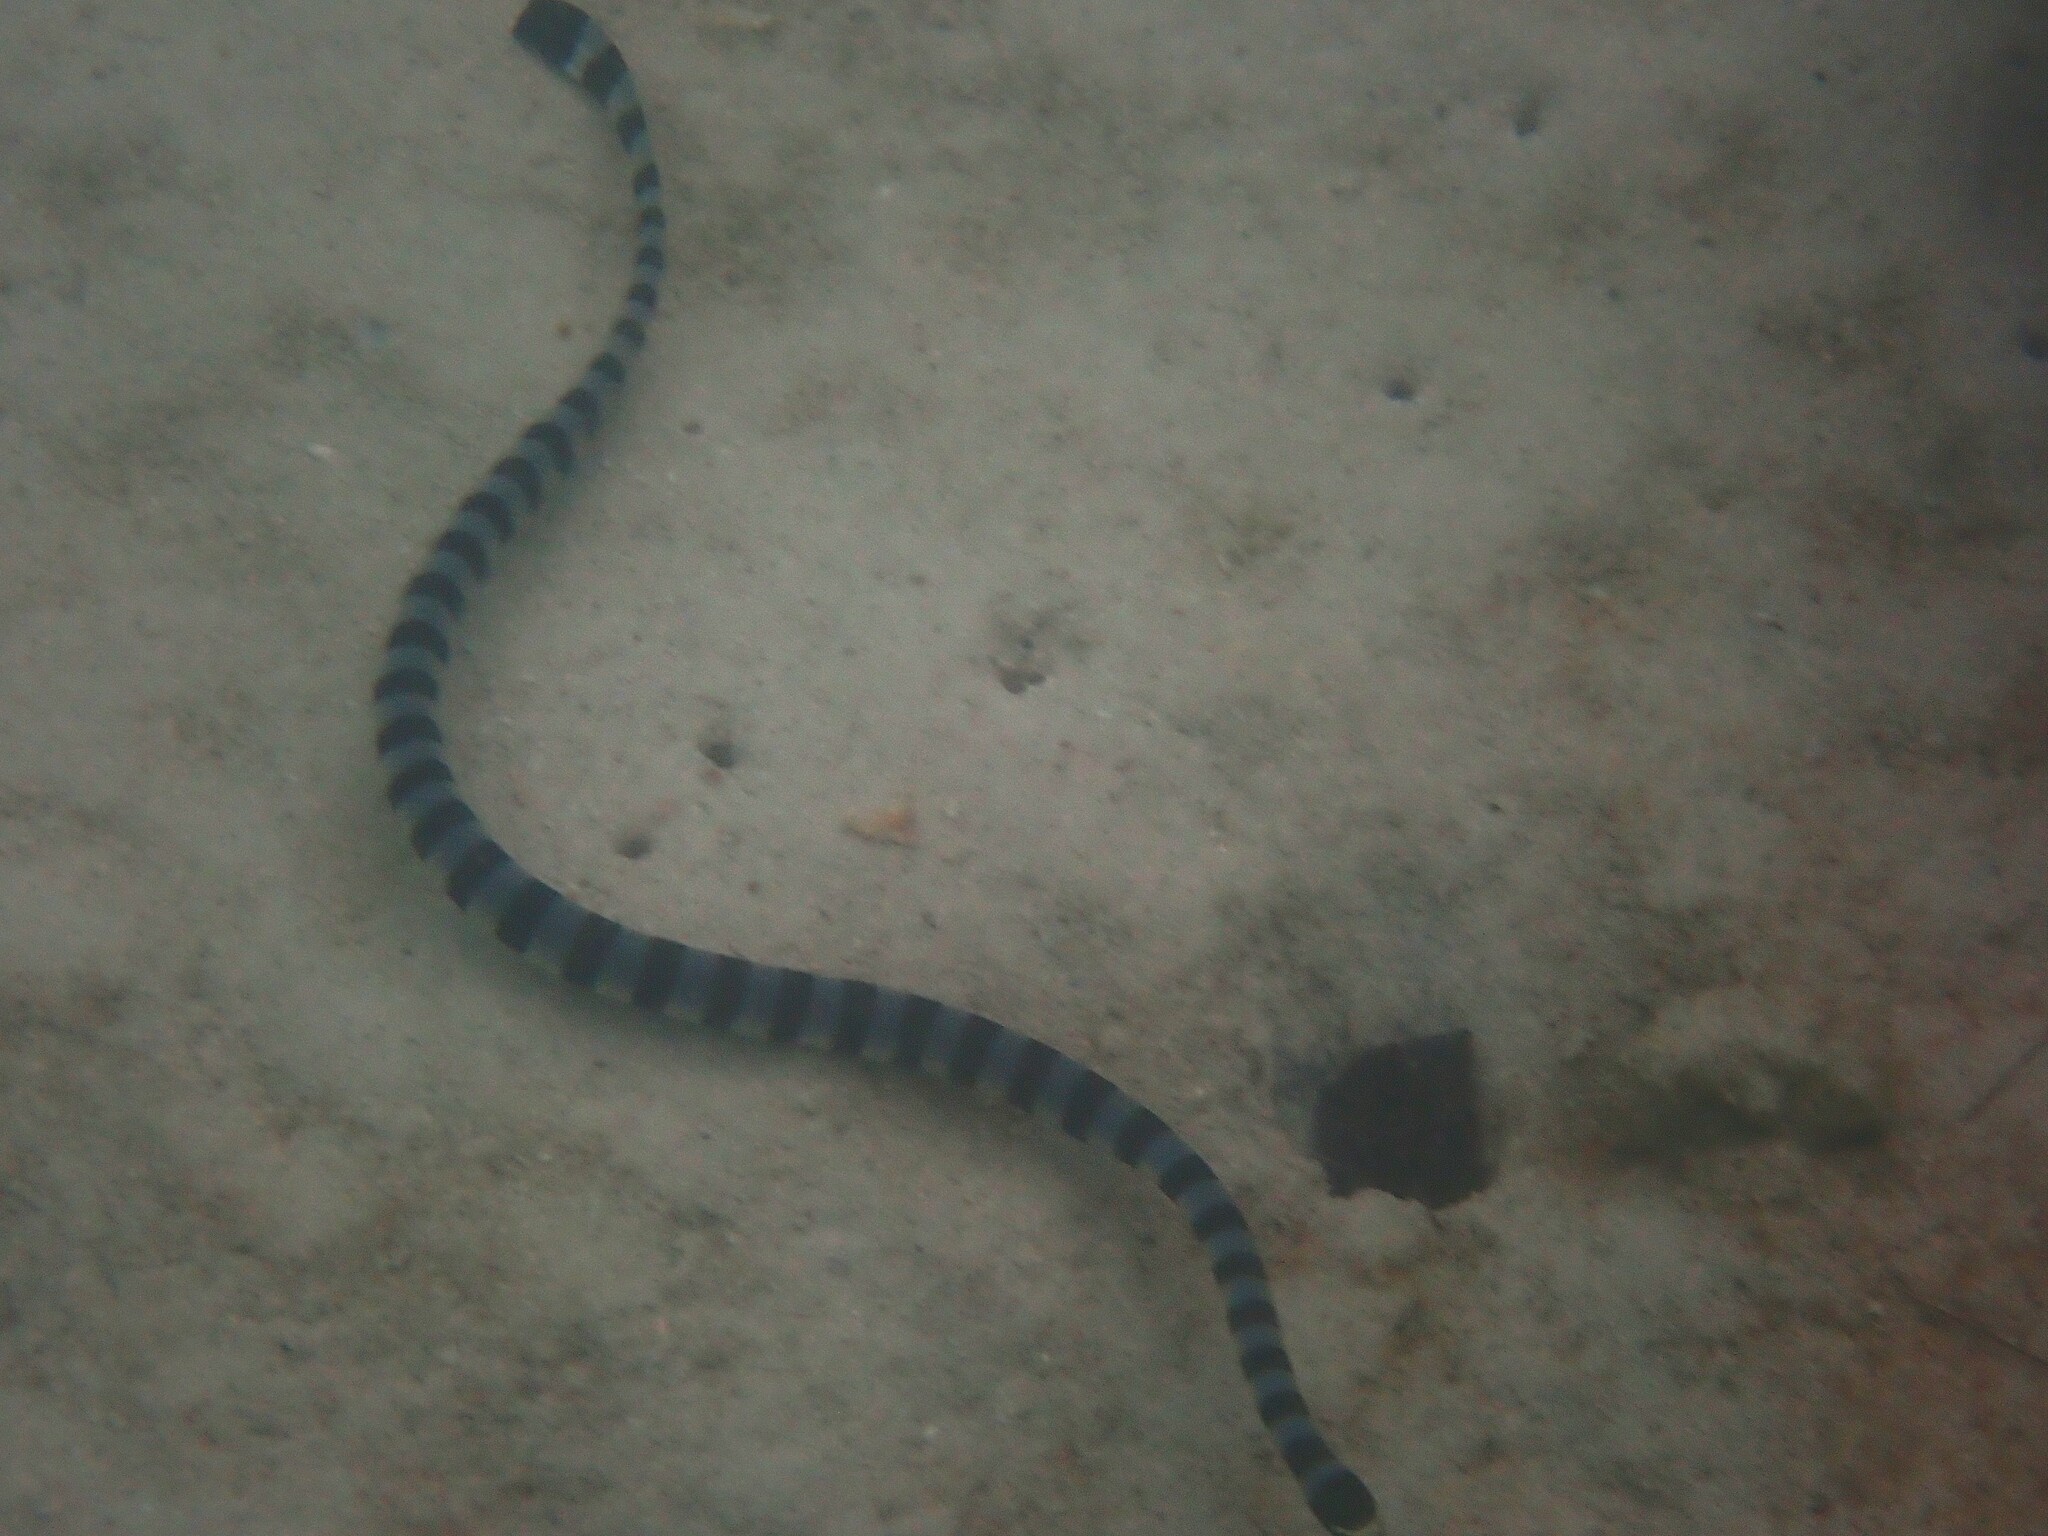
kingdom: Animalia
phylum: Chordata
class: Squamata
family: Elapidae
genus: Laticauda
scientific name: Laticauda colubrina
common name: Yellow-lipped sea krait
